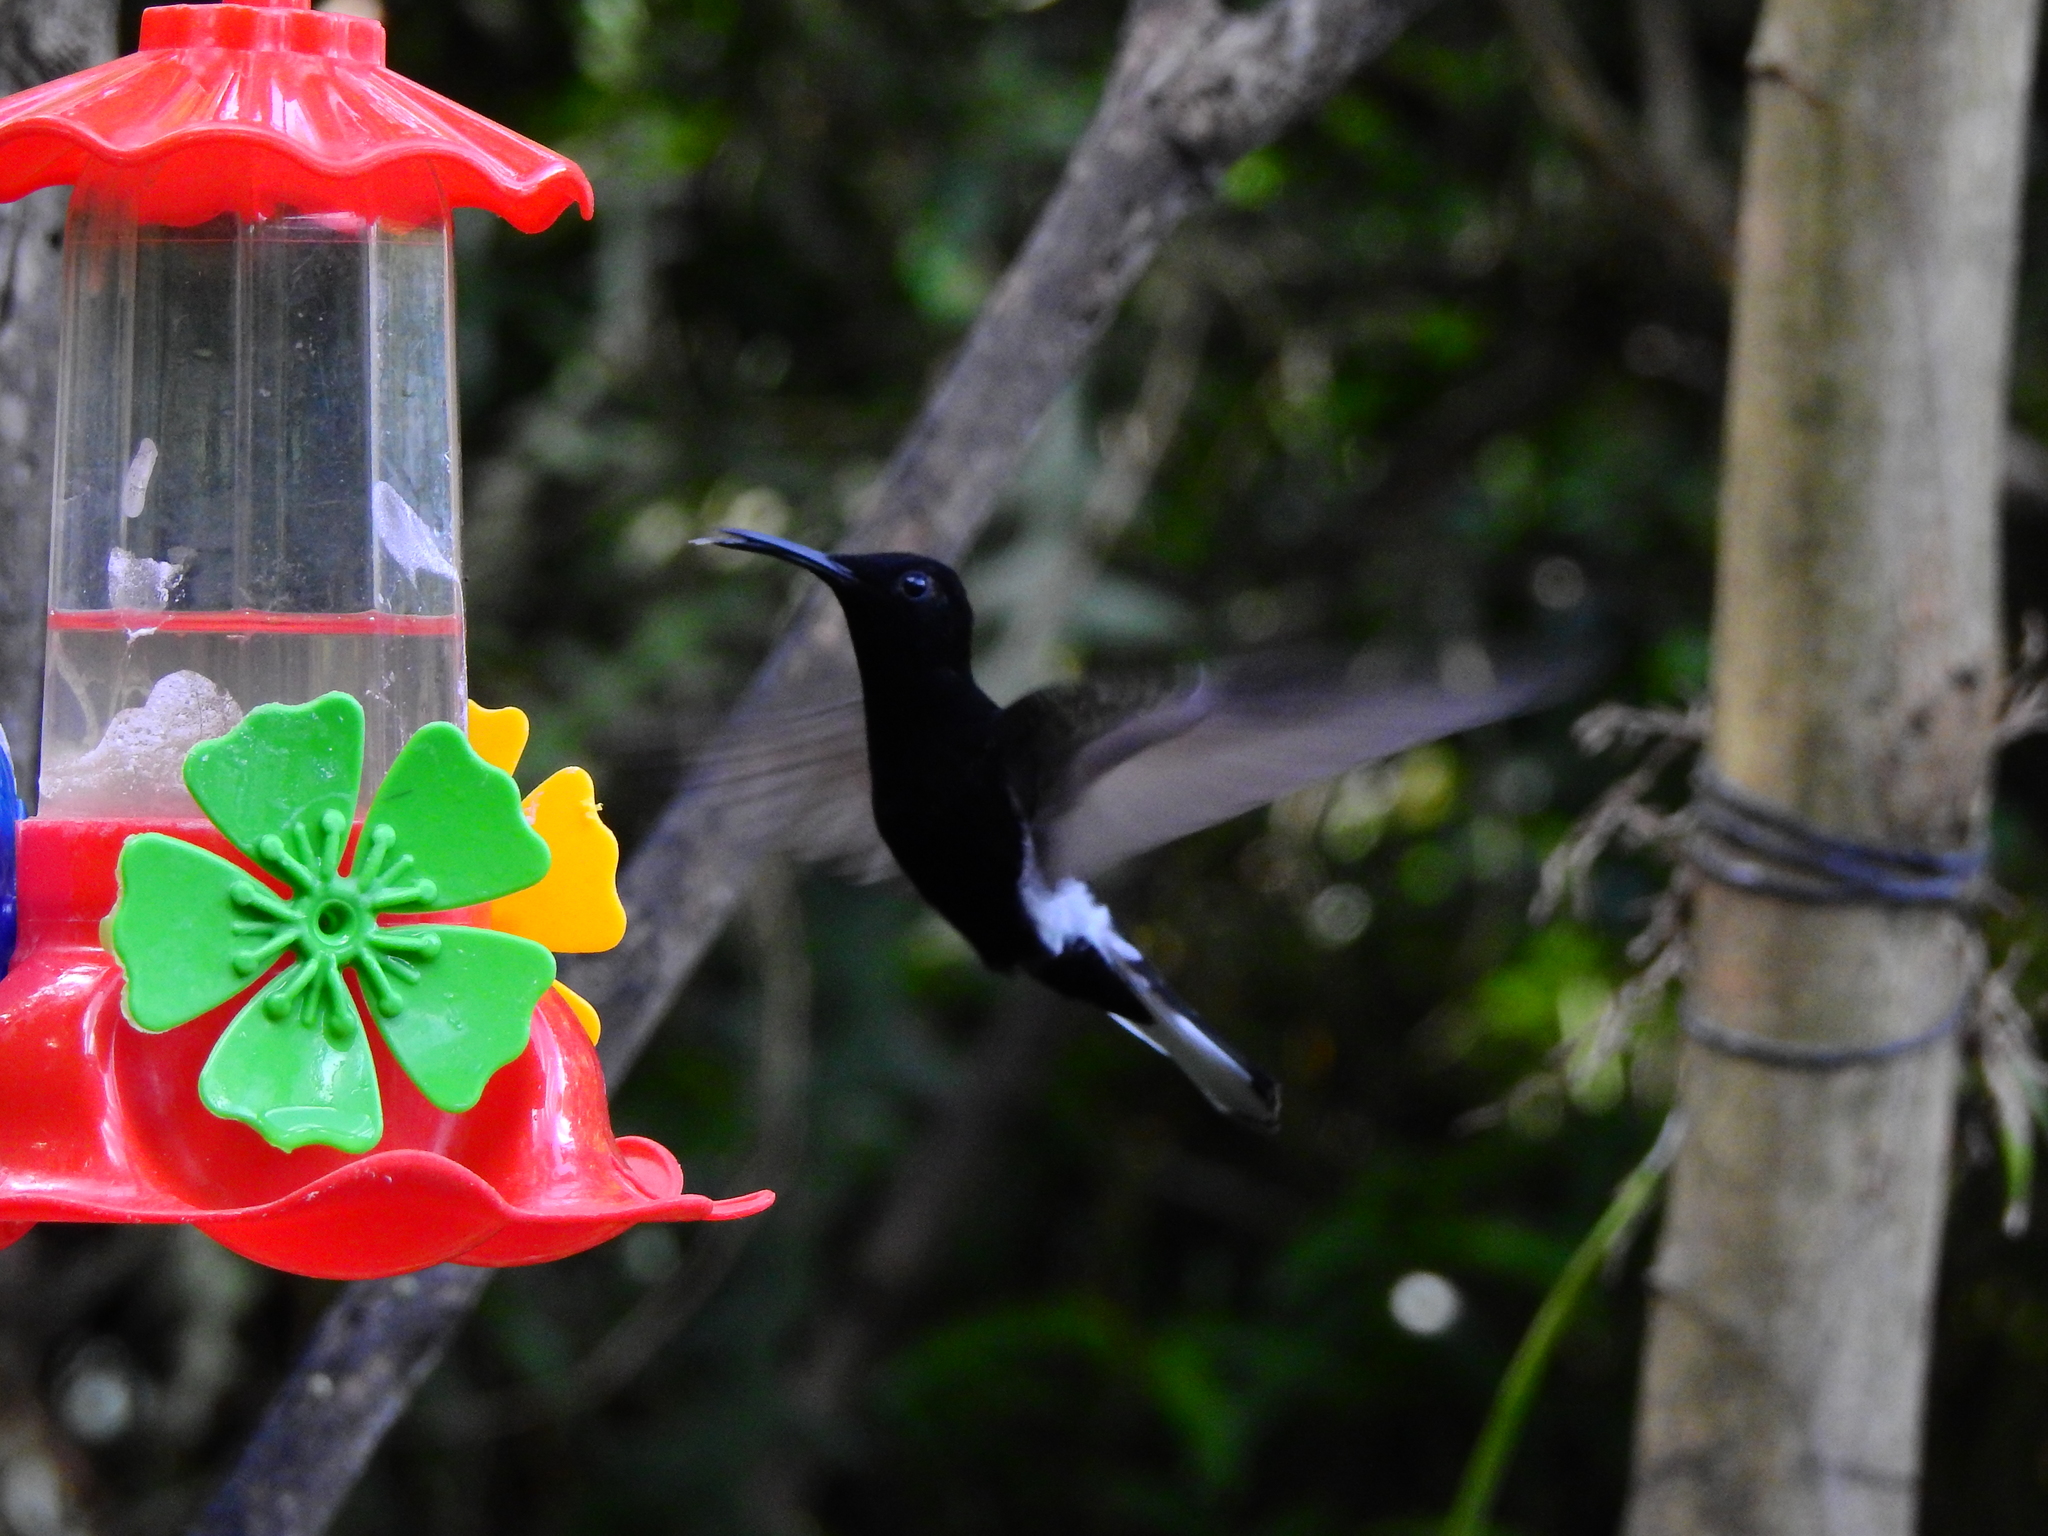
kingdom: Animalia
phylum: Chordata
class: Aves
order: Apodiformes
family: Trochilidae
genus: Florisuga
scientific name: Florisuga fusca
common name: Black jacobin
